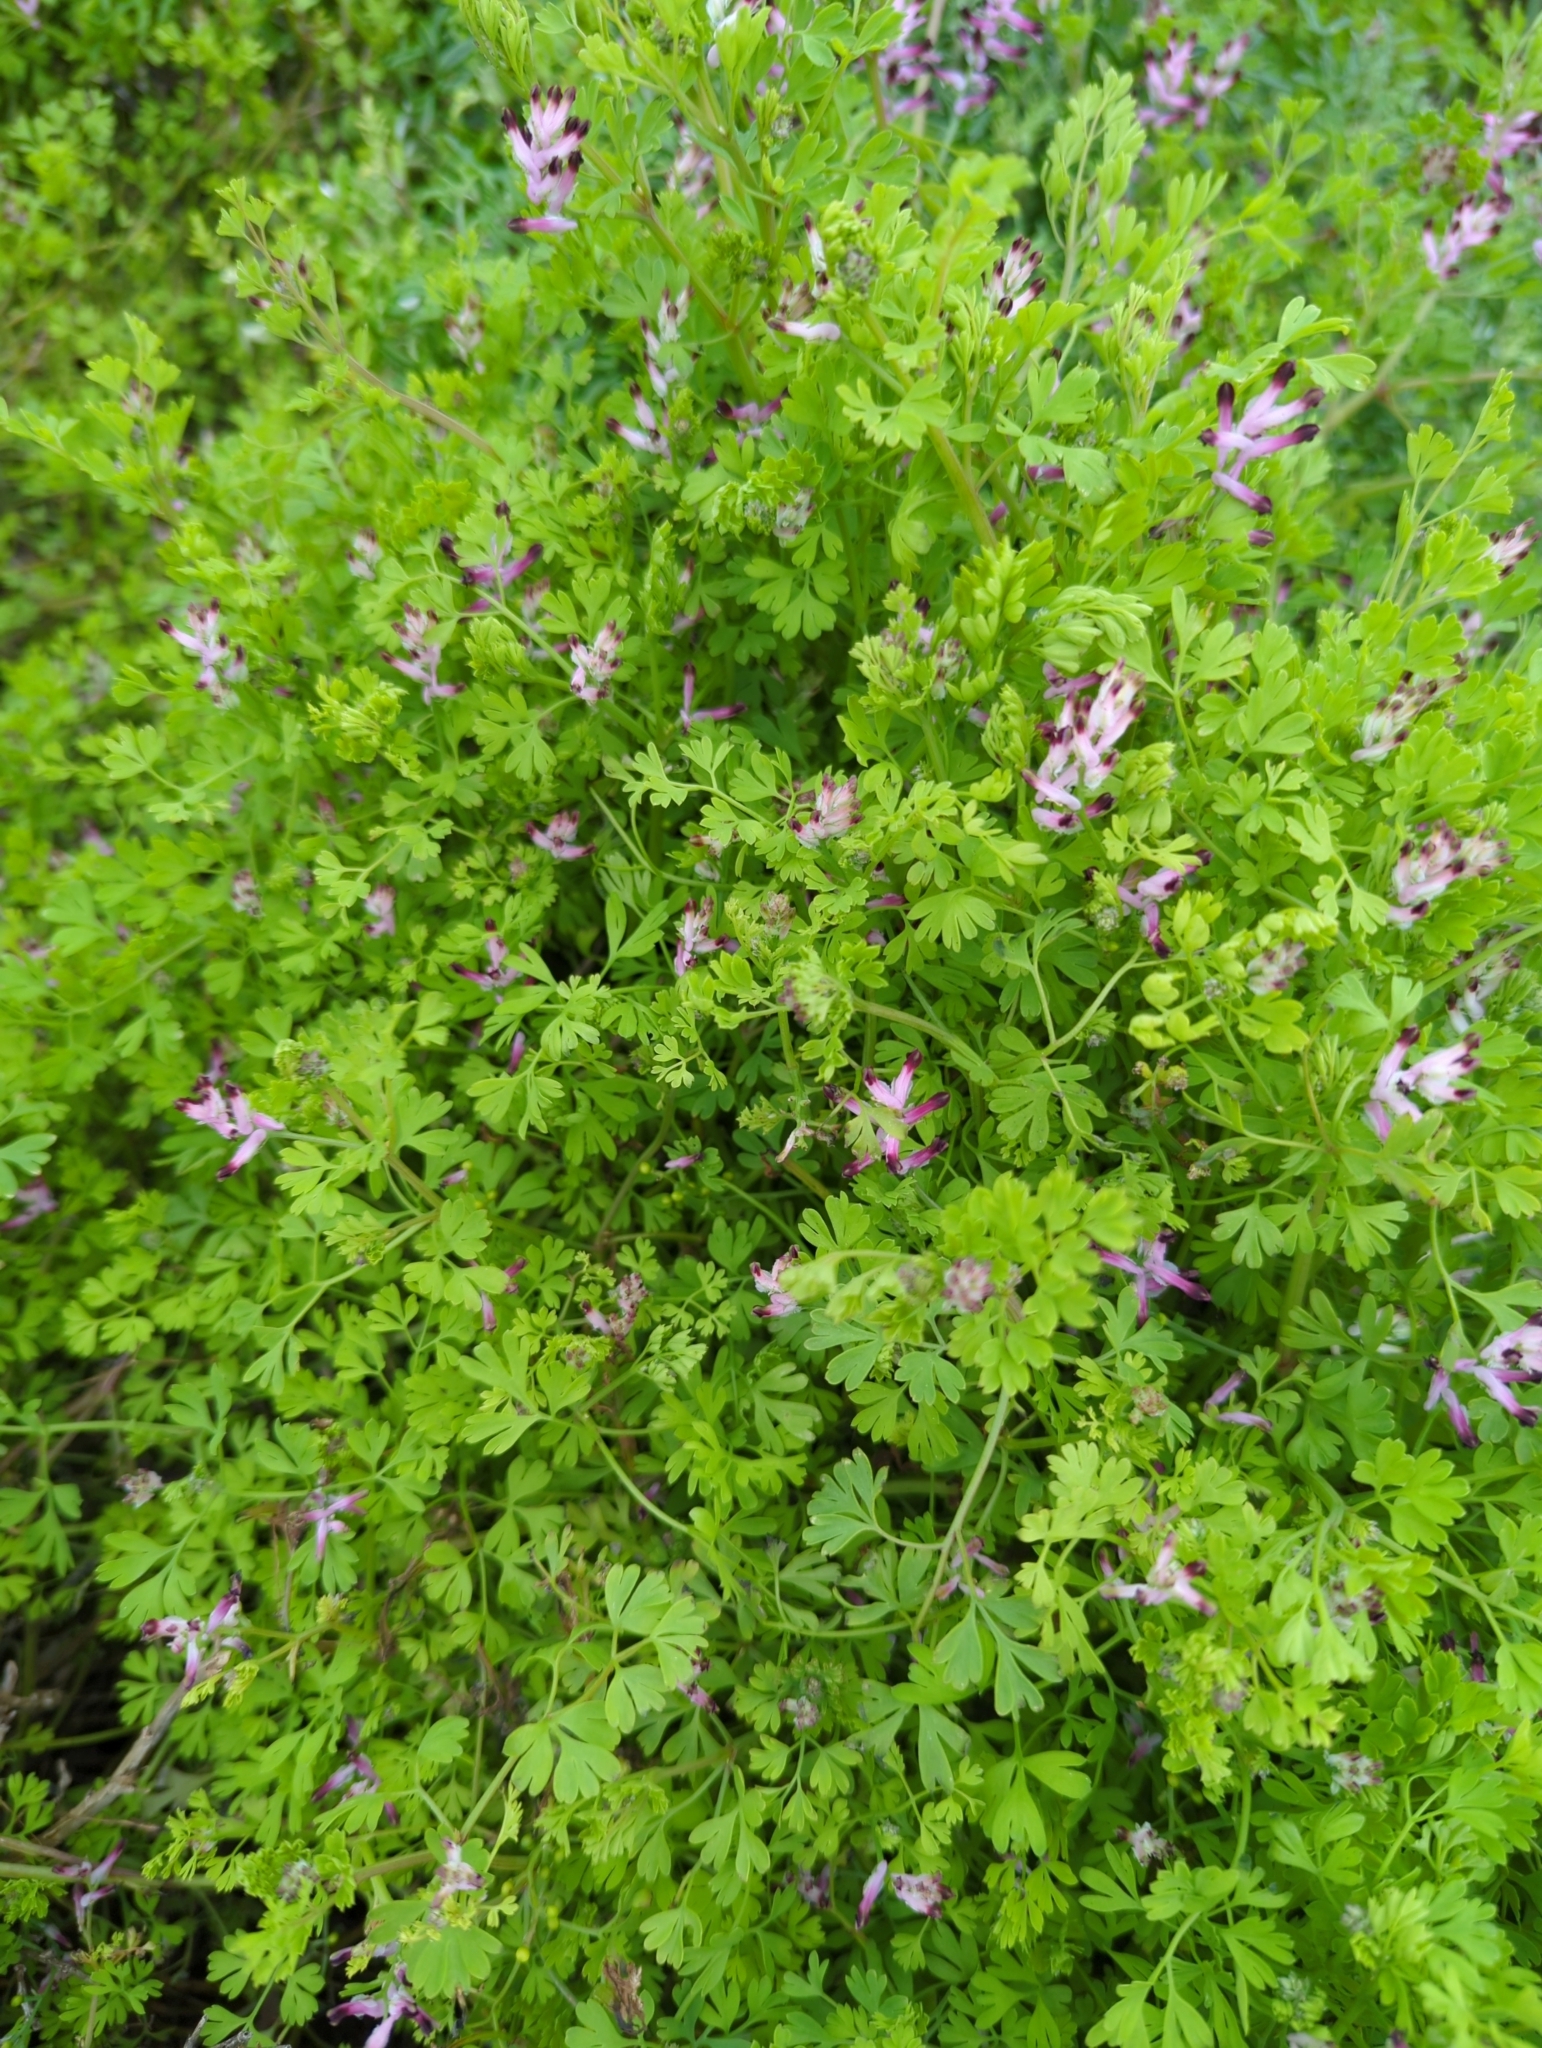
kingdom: Plantae
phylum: Tracheophyta
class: Magnoliopsida
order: Ranunculales
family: Papaveraceae
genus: Fumaria
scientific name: Fumaria muralis
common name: Common ramping-fumitory
